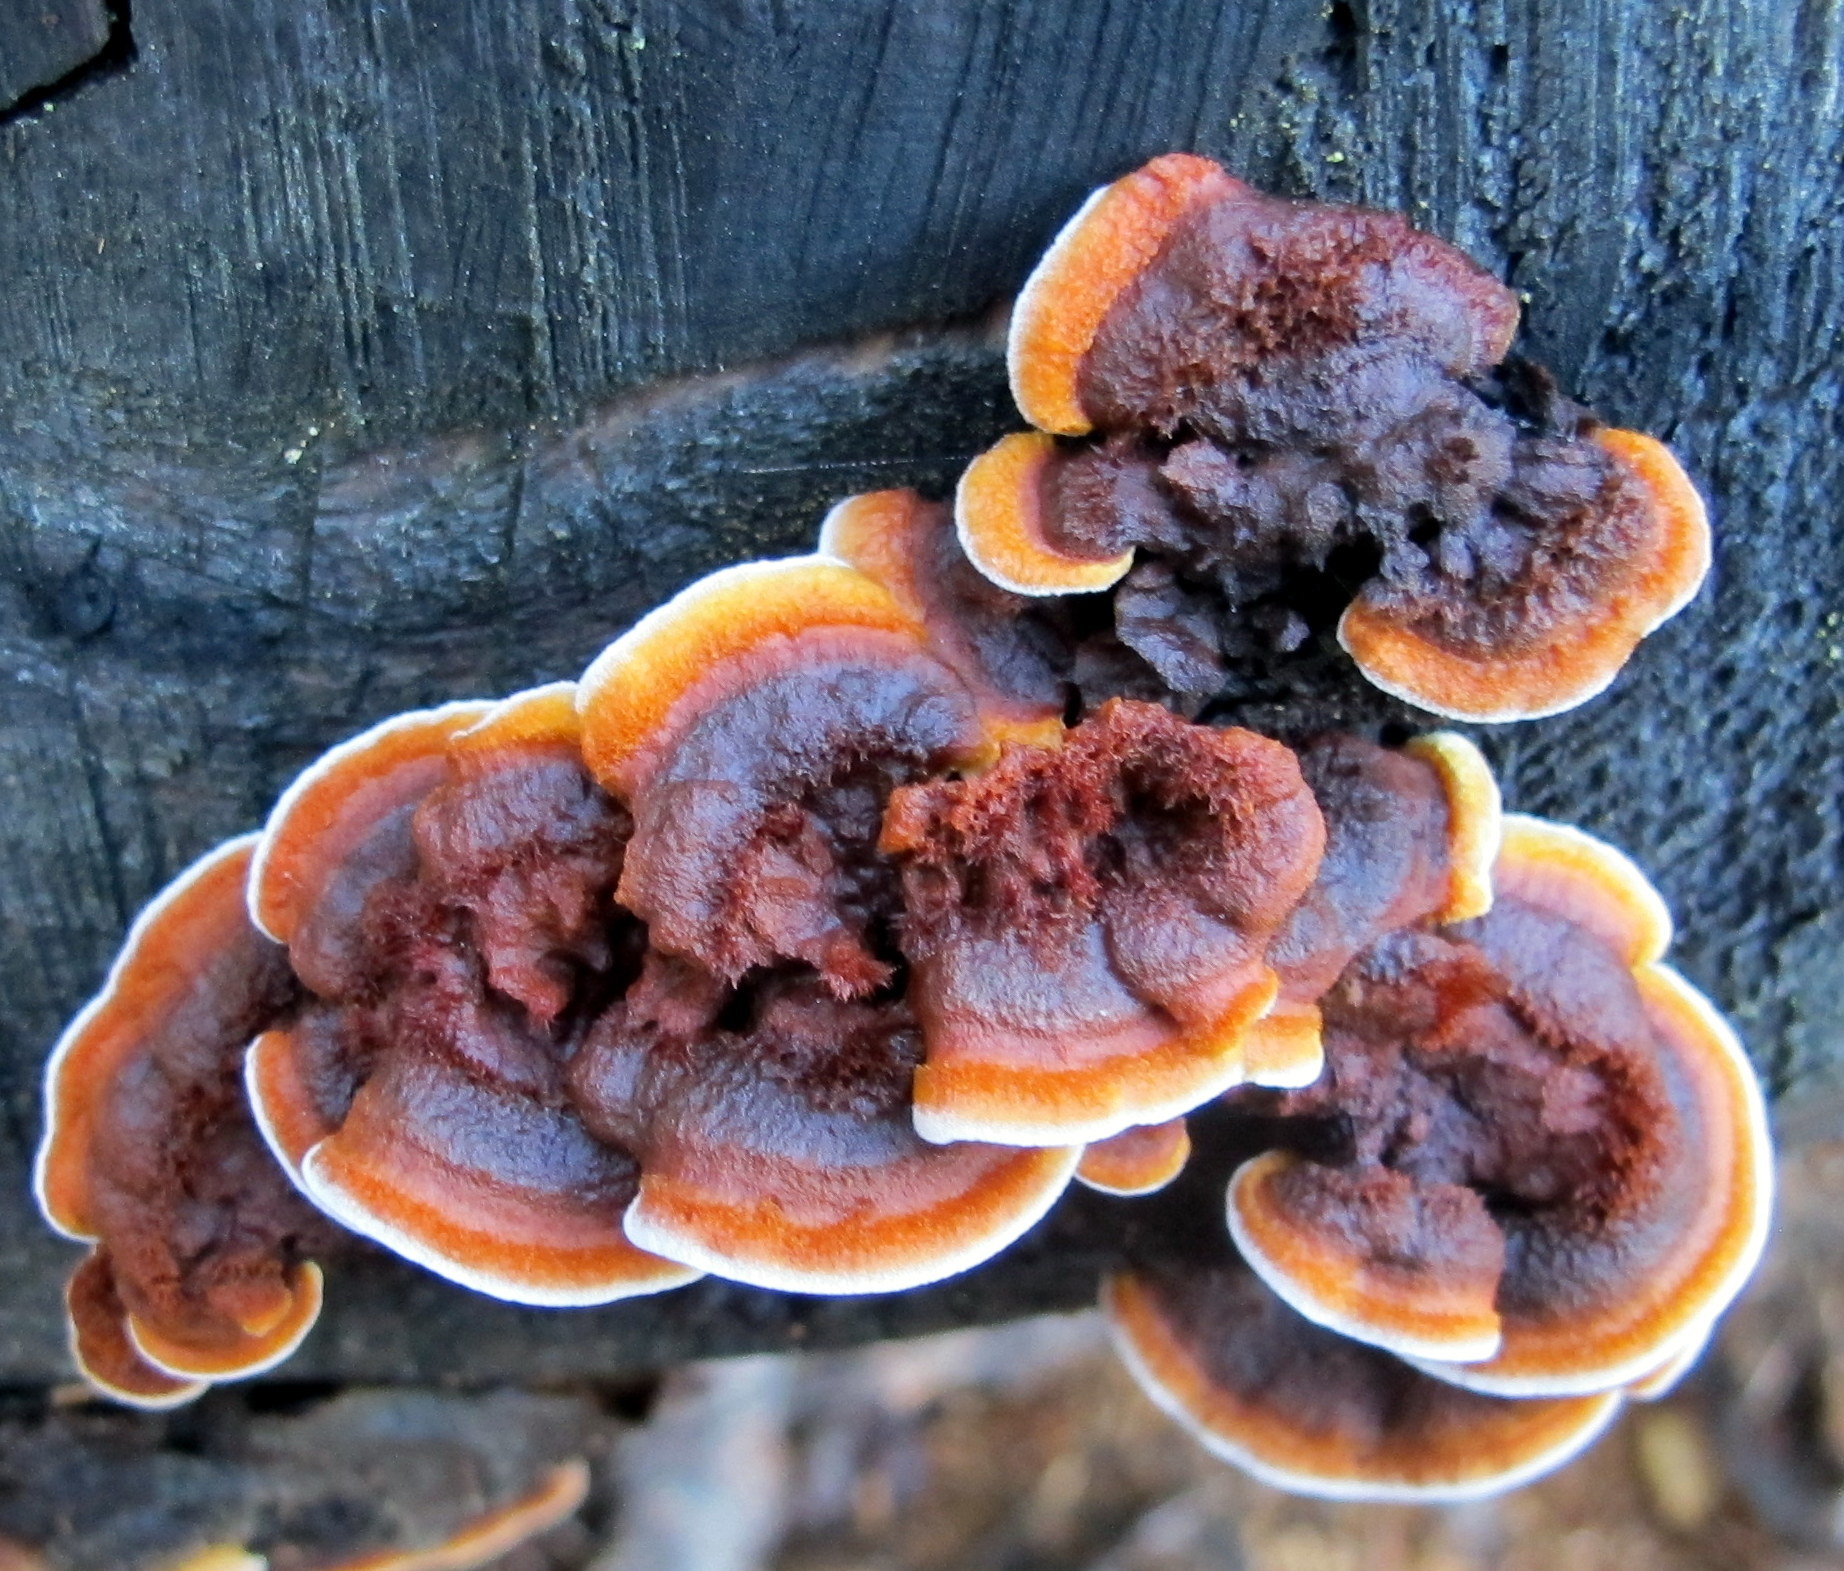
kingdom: Fungi
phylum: Basidiomycota
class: Agaricomycetes
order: Gloeophyllales
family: Gloeophyllaceae
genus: Gloeophyllum
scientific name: Gloeophyllum sepiarium
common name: Conifer mazegill
